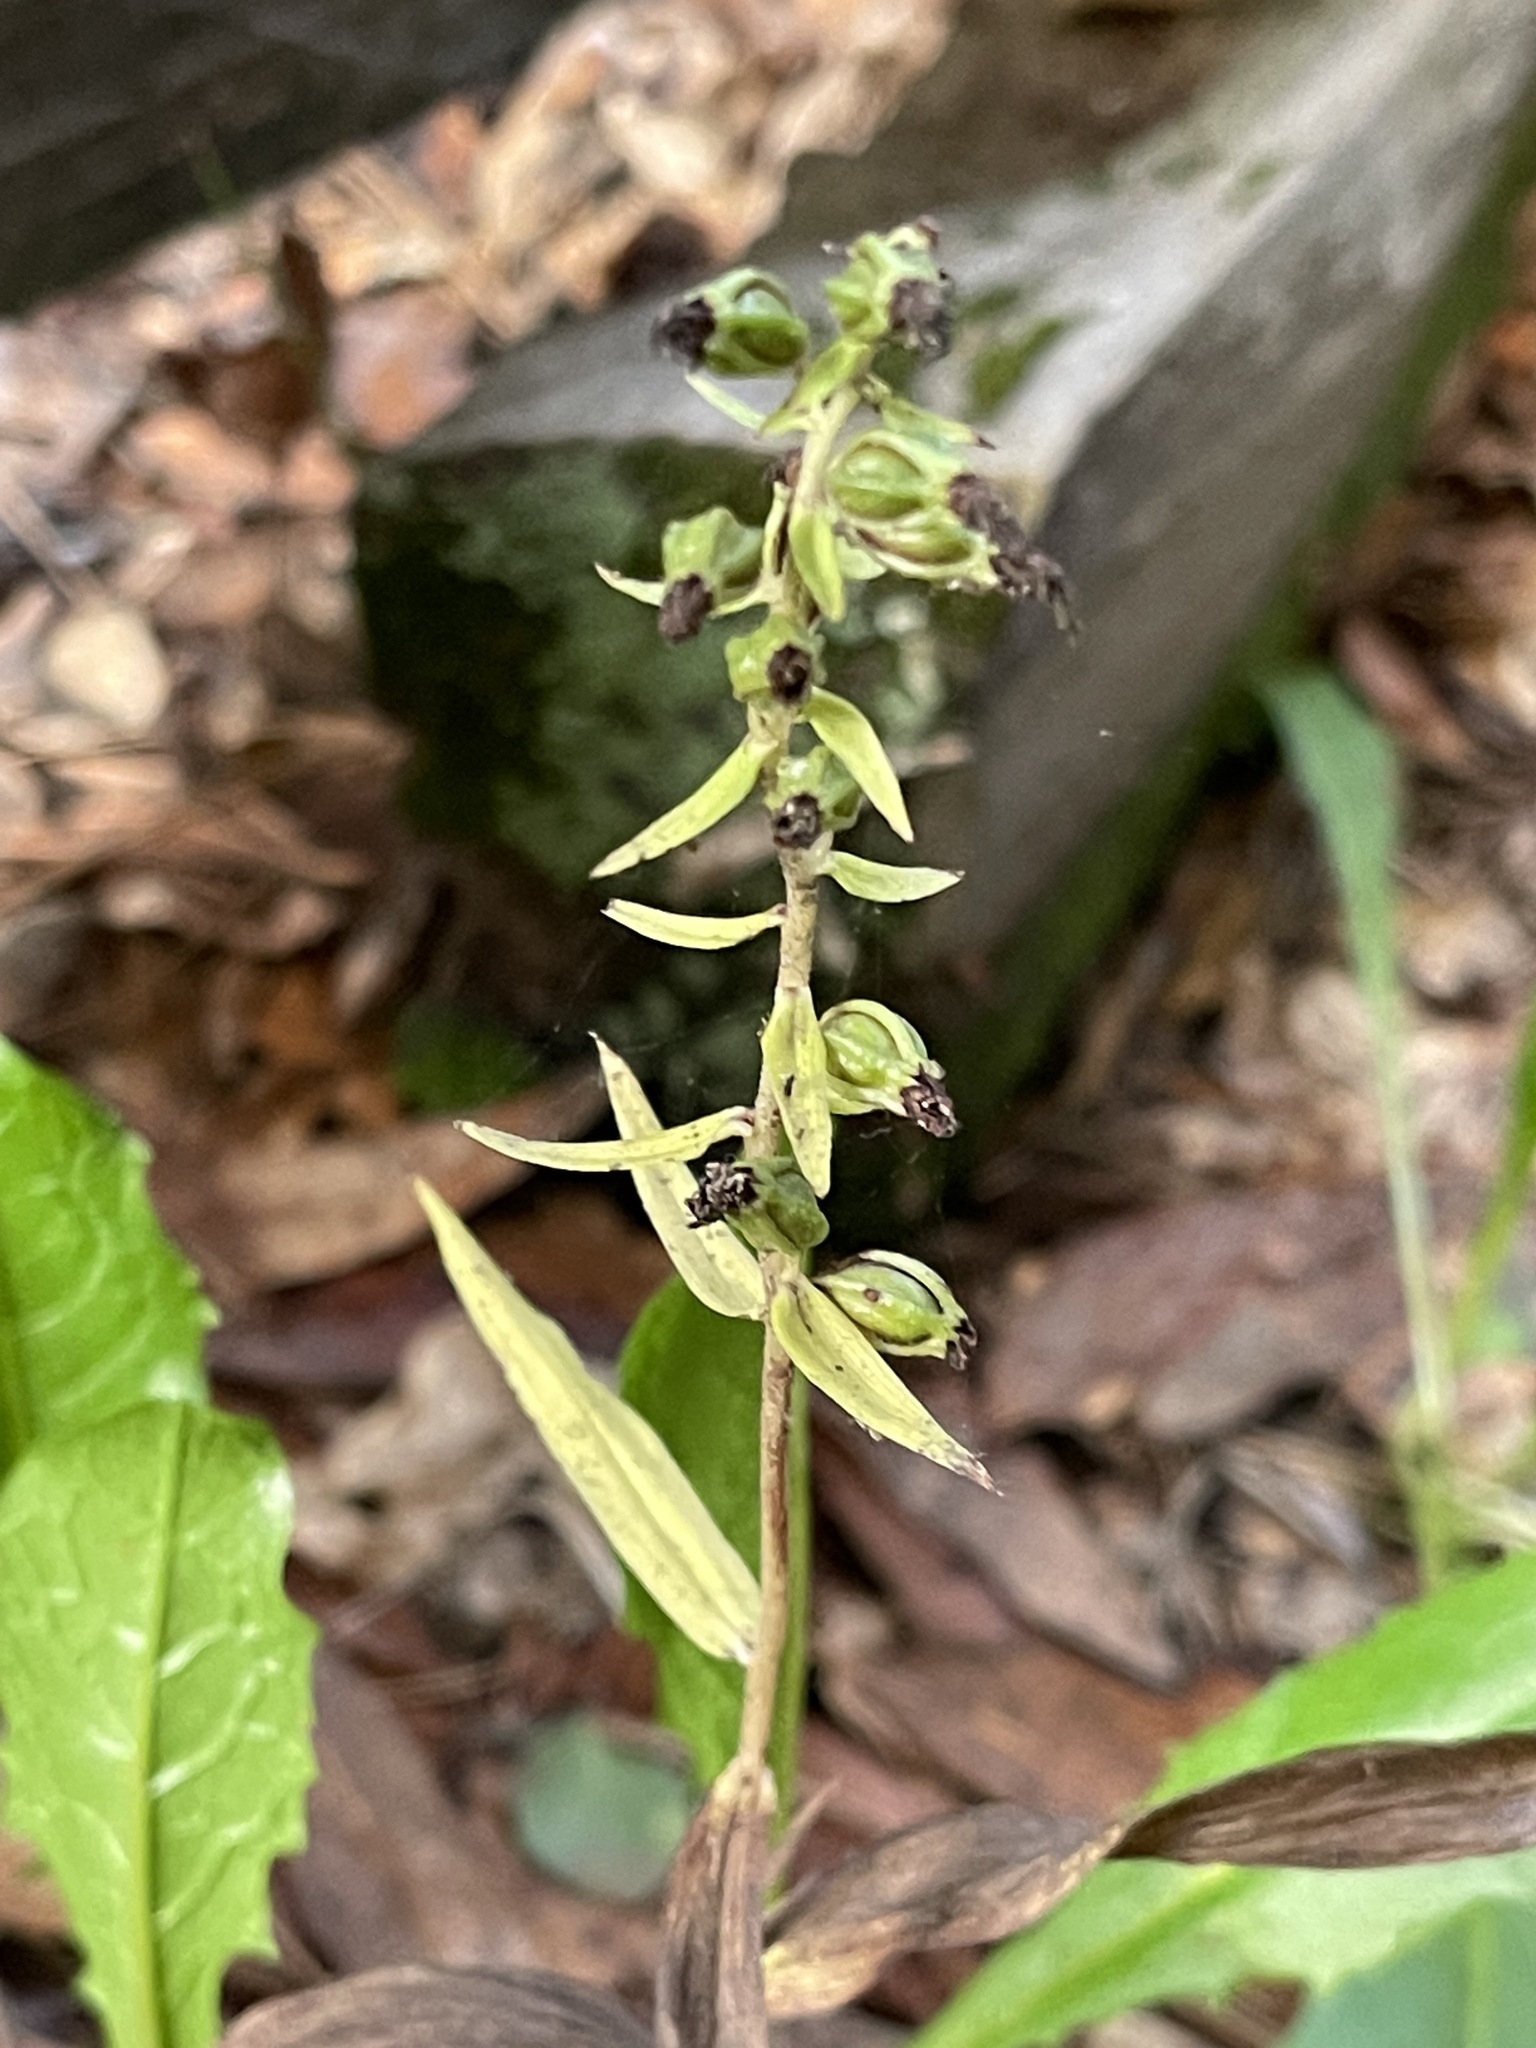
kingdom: Plantae
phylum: Tracheophyta
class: Liliopsida
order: Asparagales
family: Orchidaceae
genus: Epipactis
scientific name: Epipactis helleborine
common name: Broad-leaved helleborine
